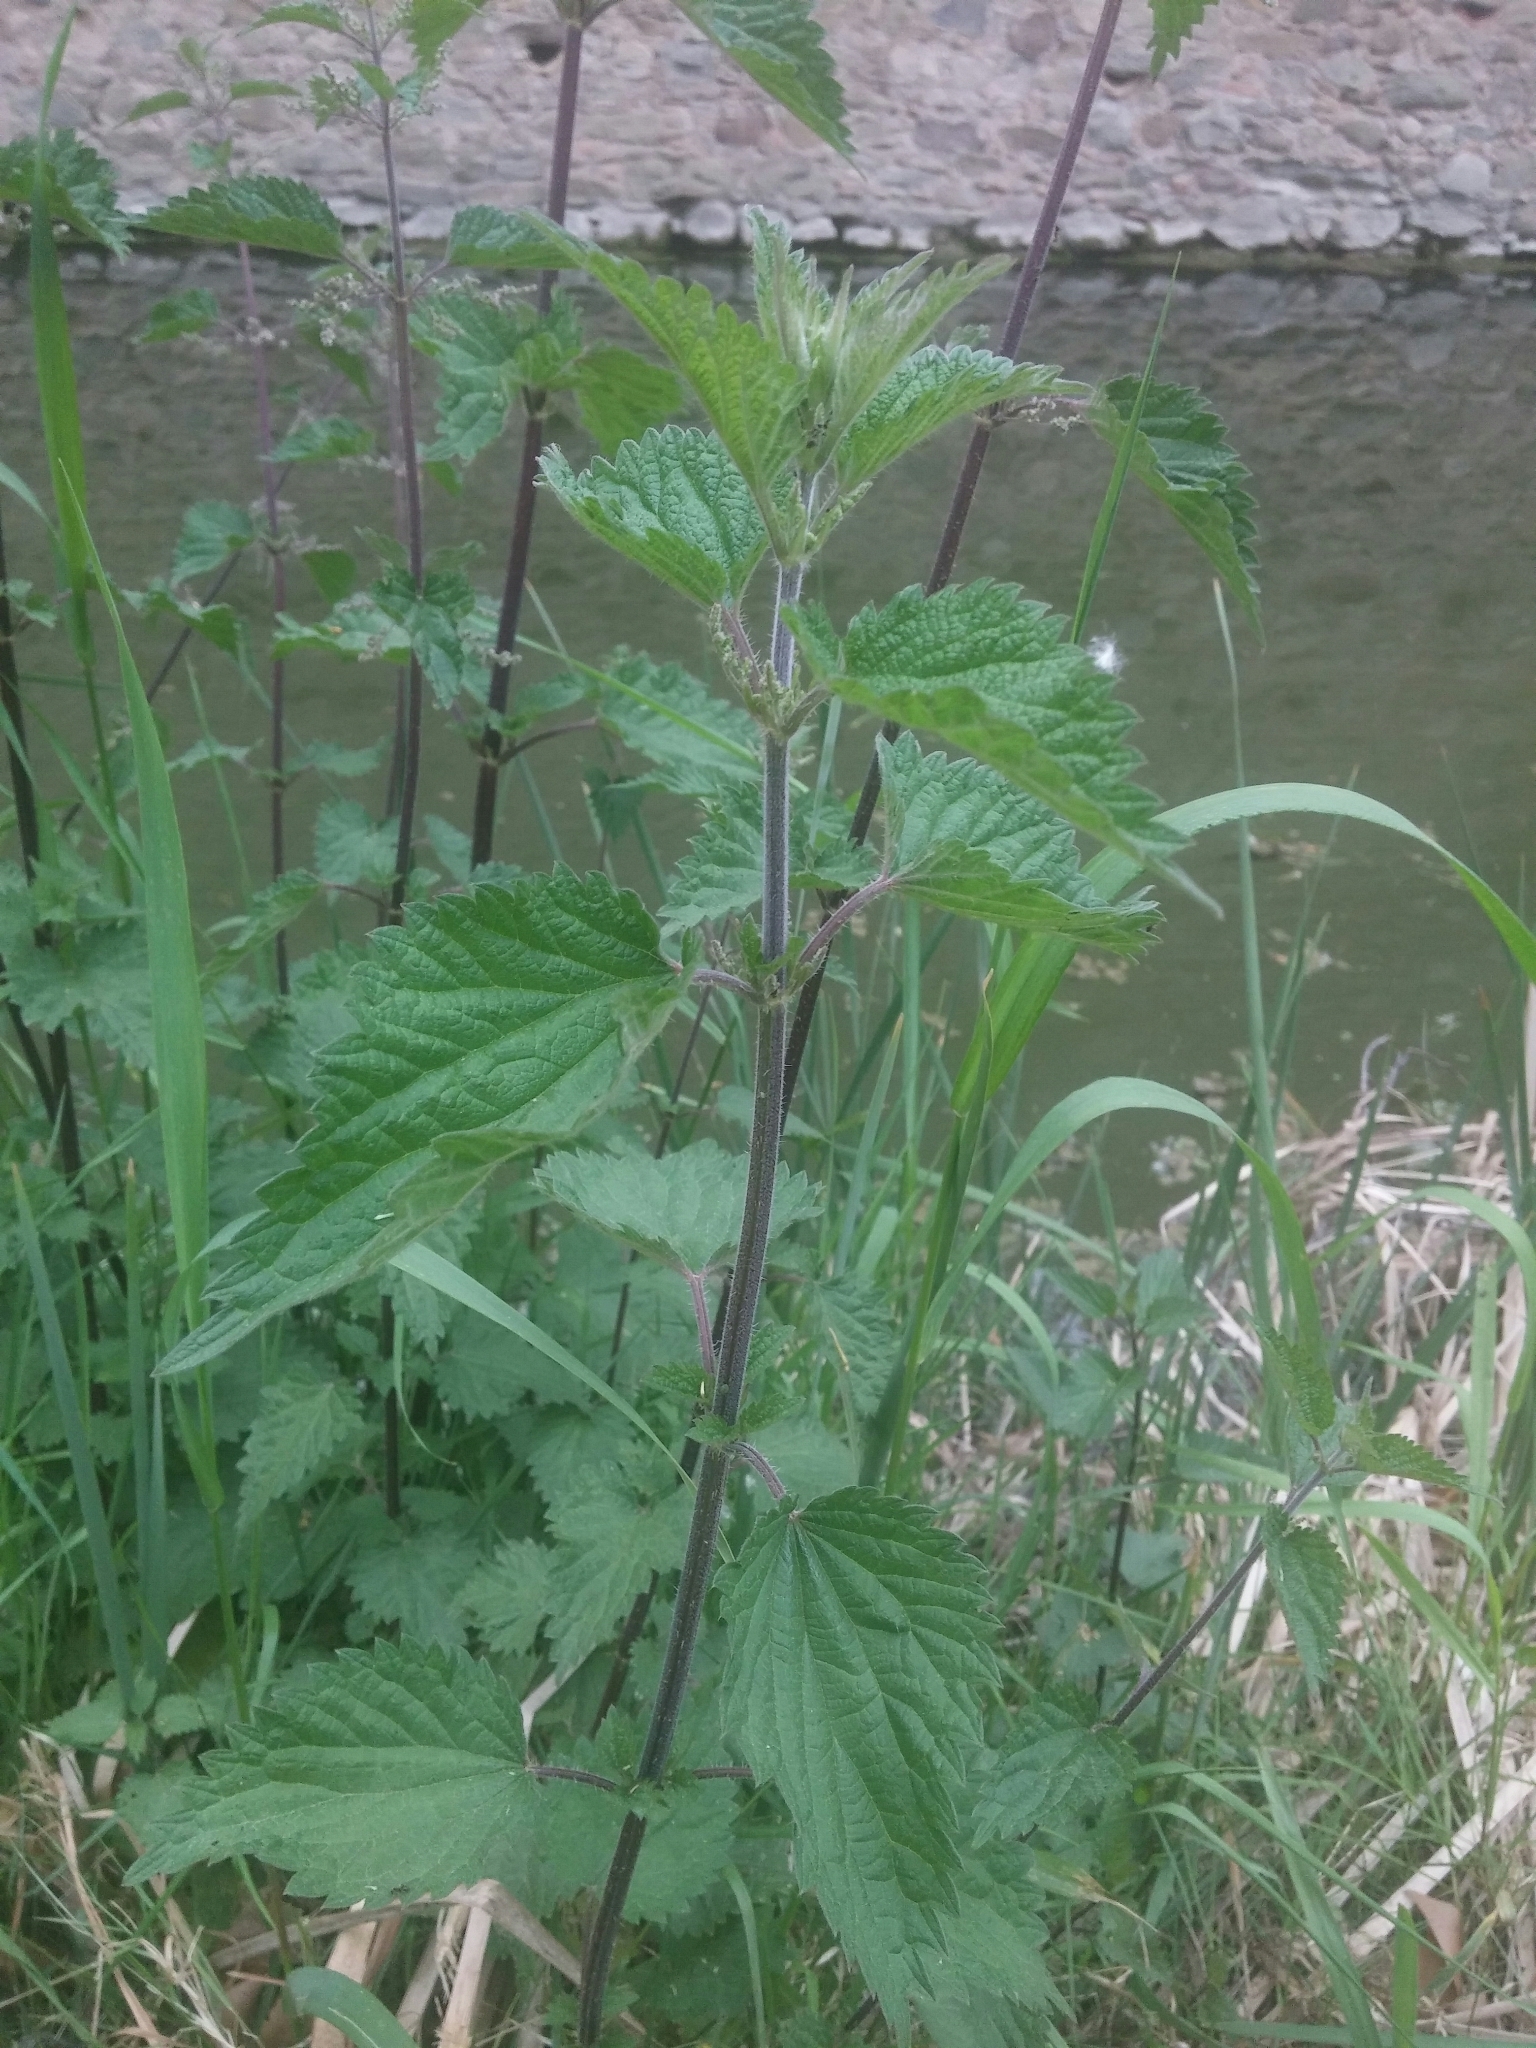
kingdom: Plantae
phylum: Tracheophyta
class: Magnoliopsida
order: Rosales
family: Urticaceae
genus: Urtica
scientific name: Urtica dioica
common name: Common nettle
